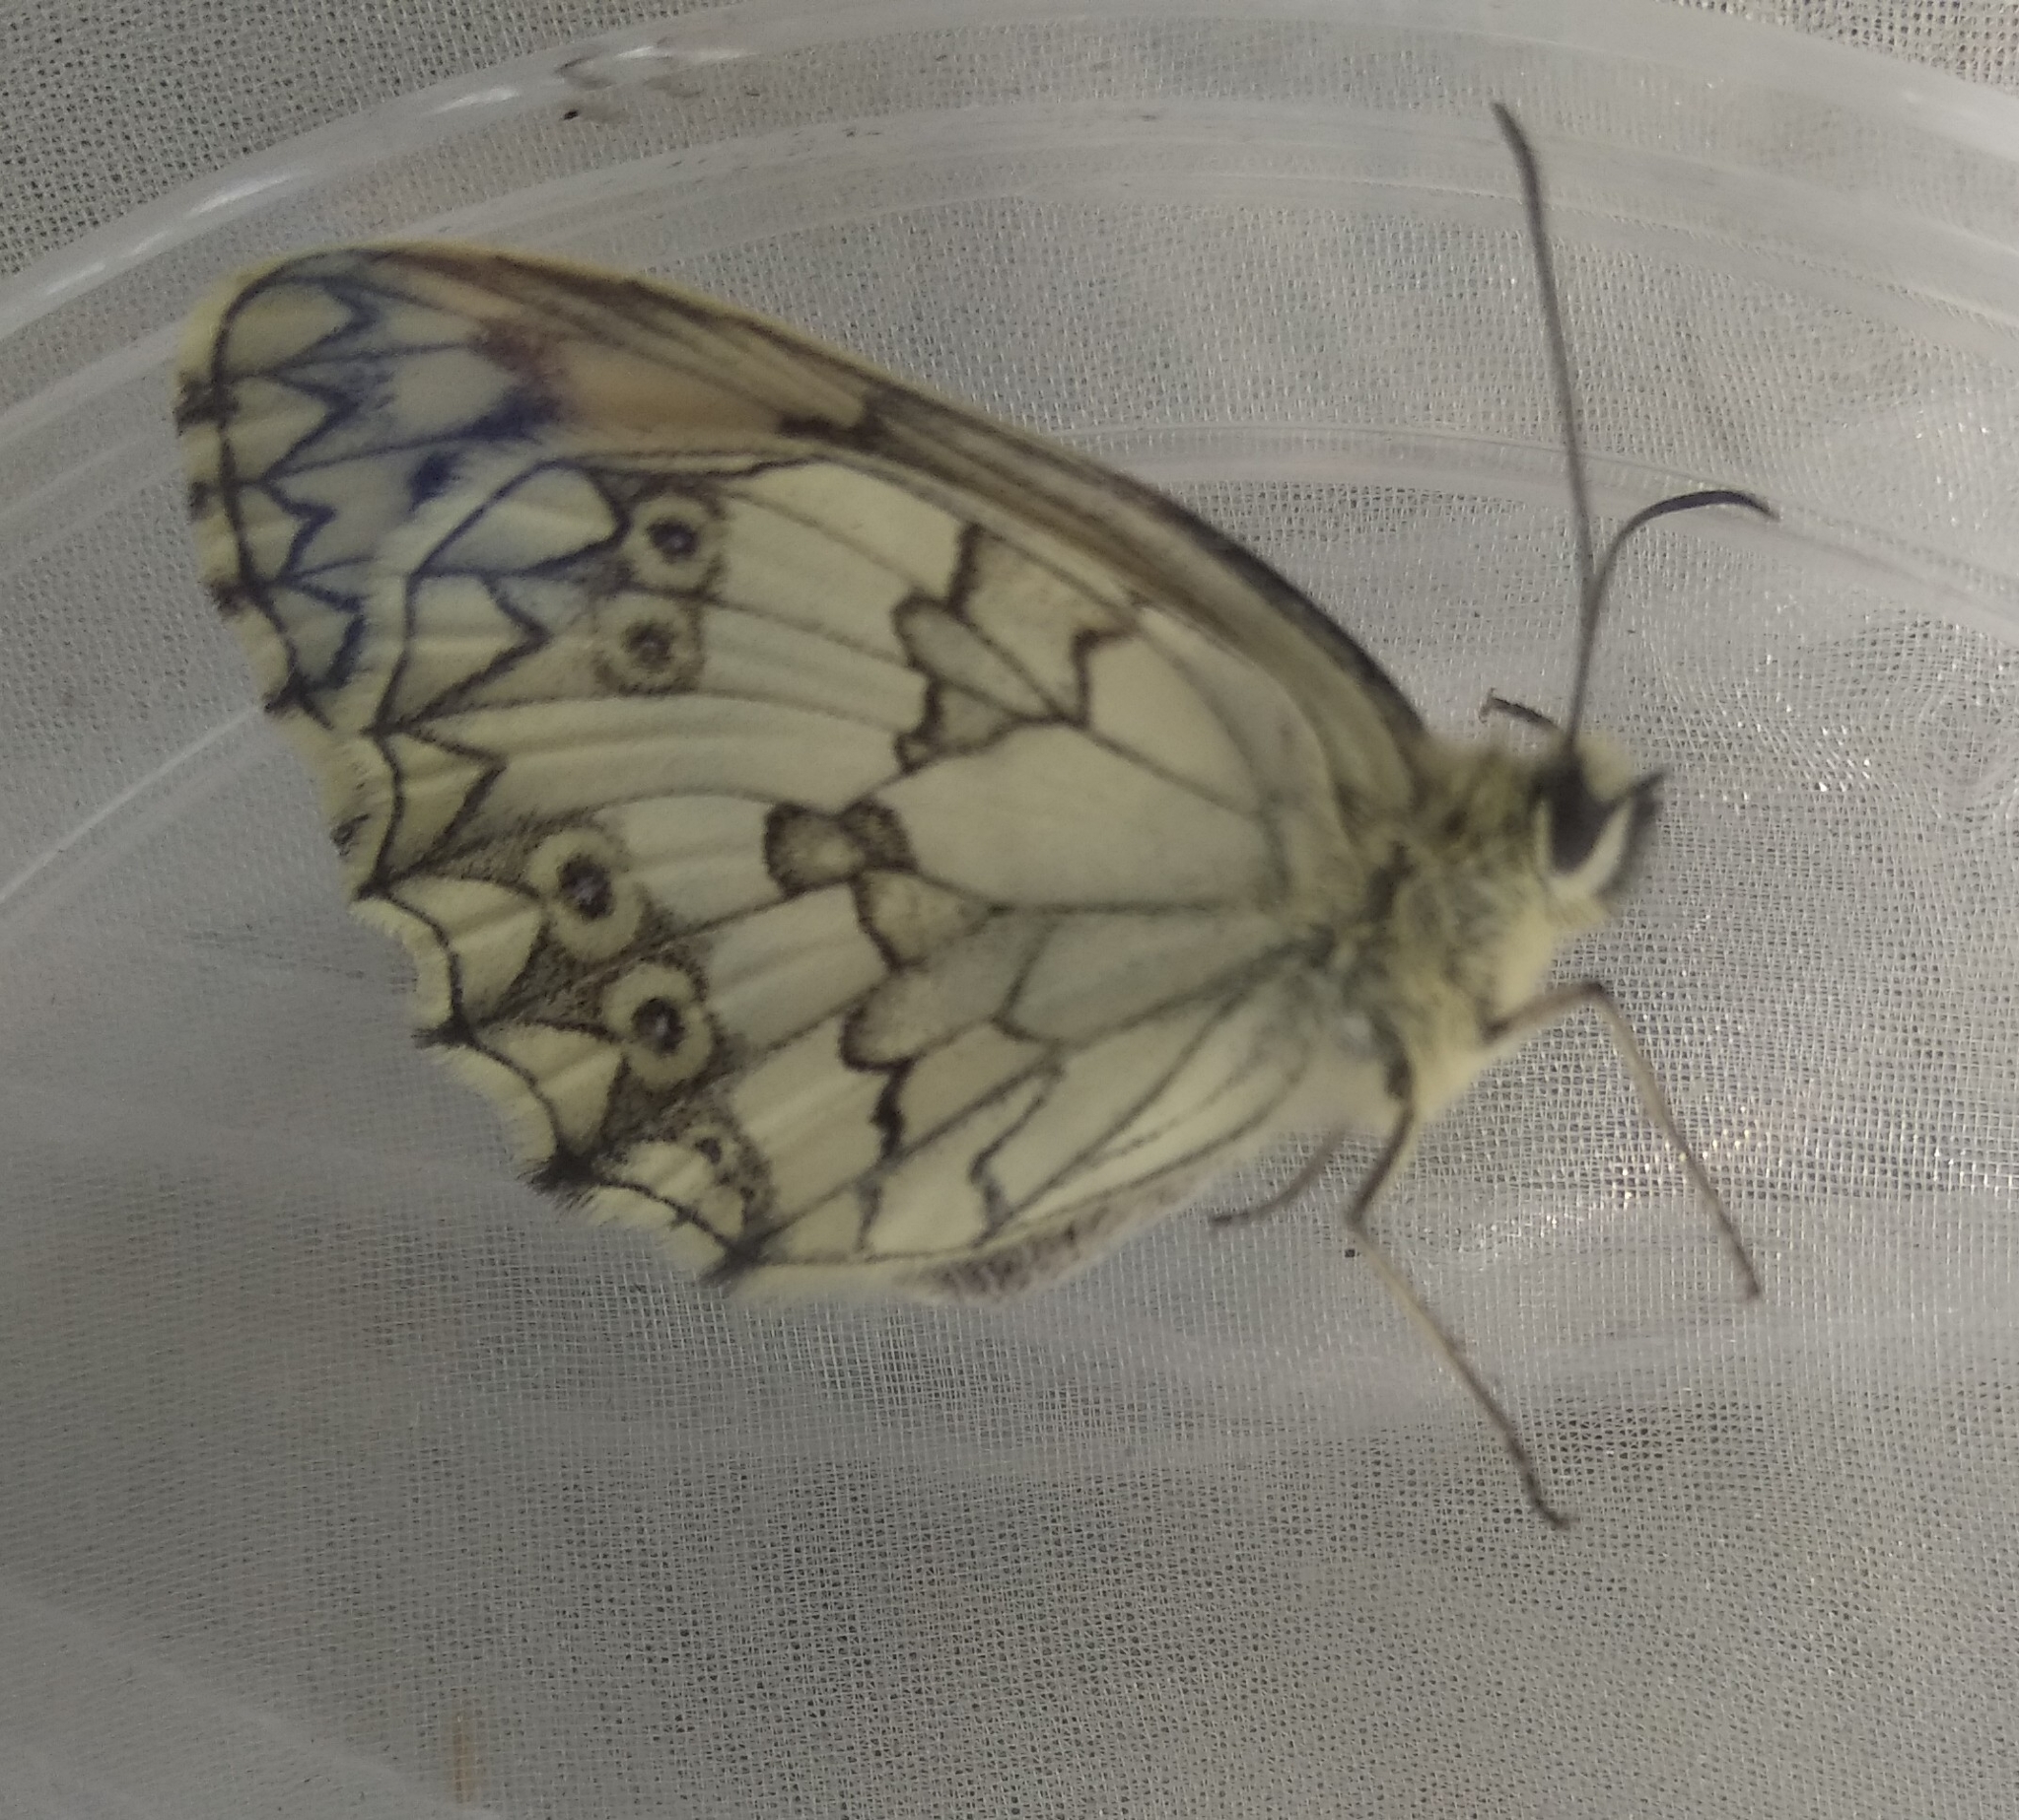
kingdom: Animalia
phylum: Arthropoda
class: Insecta
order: Lepidoptera
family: Nymphalidae
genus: Melanargia
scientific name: Melanargia lachesis
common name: Iberian marbled white
